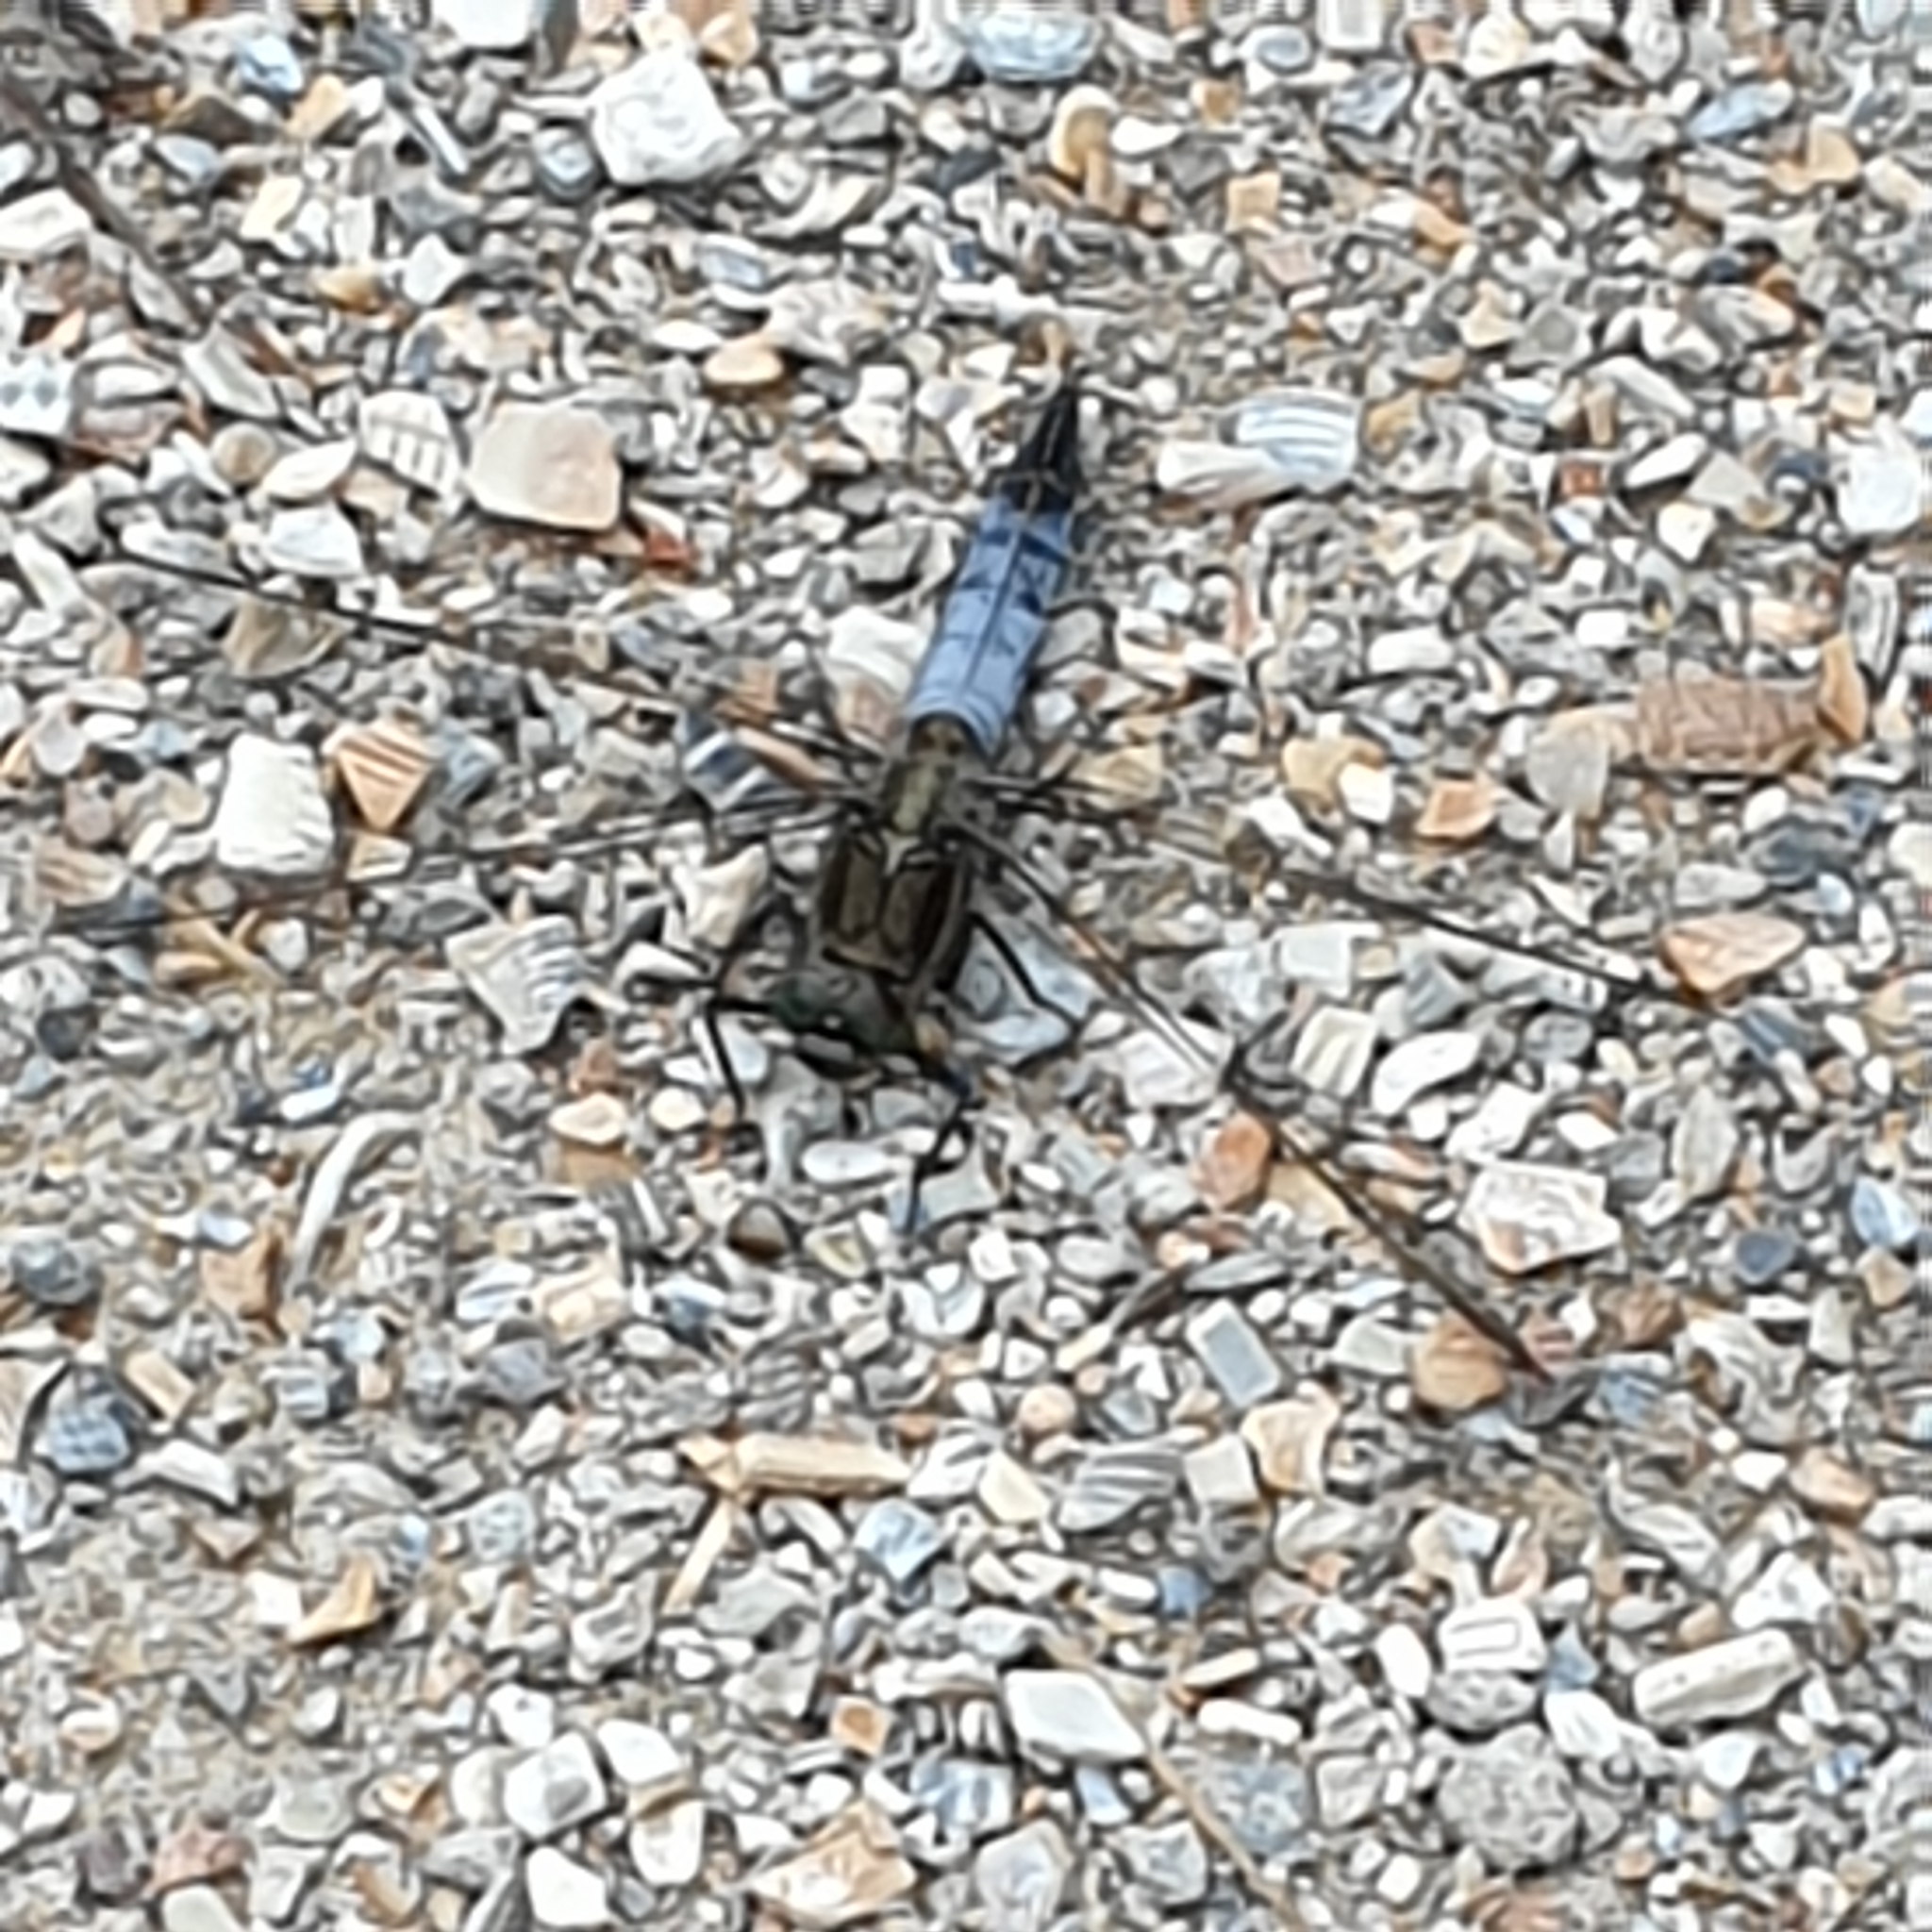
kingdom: Animalia
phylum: Arthropoda
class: Insecta
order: Odonata
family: Libellulidae
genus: Orthetrum
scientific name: Orthetrum cancellatum
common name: Black-tailed skimmer
